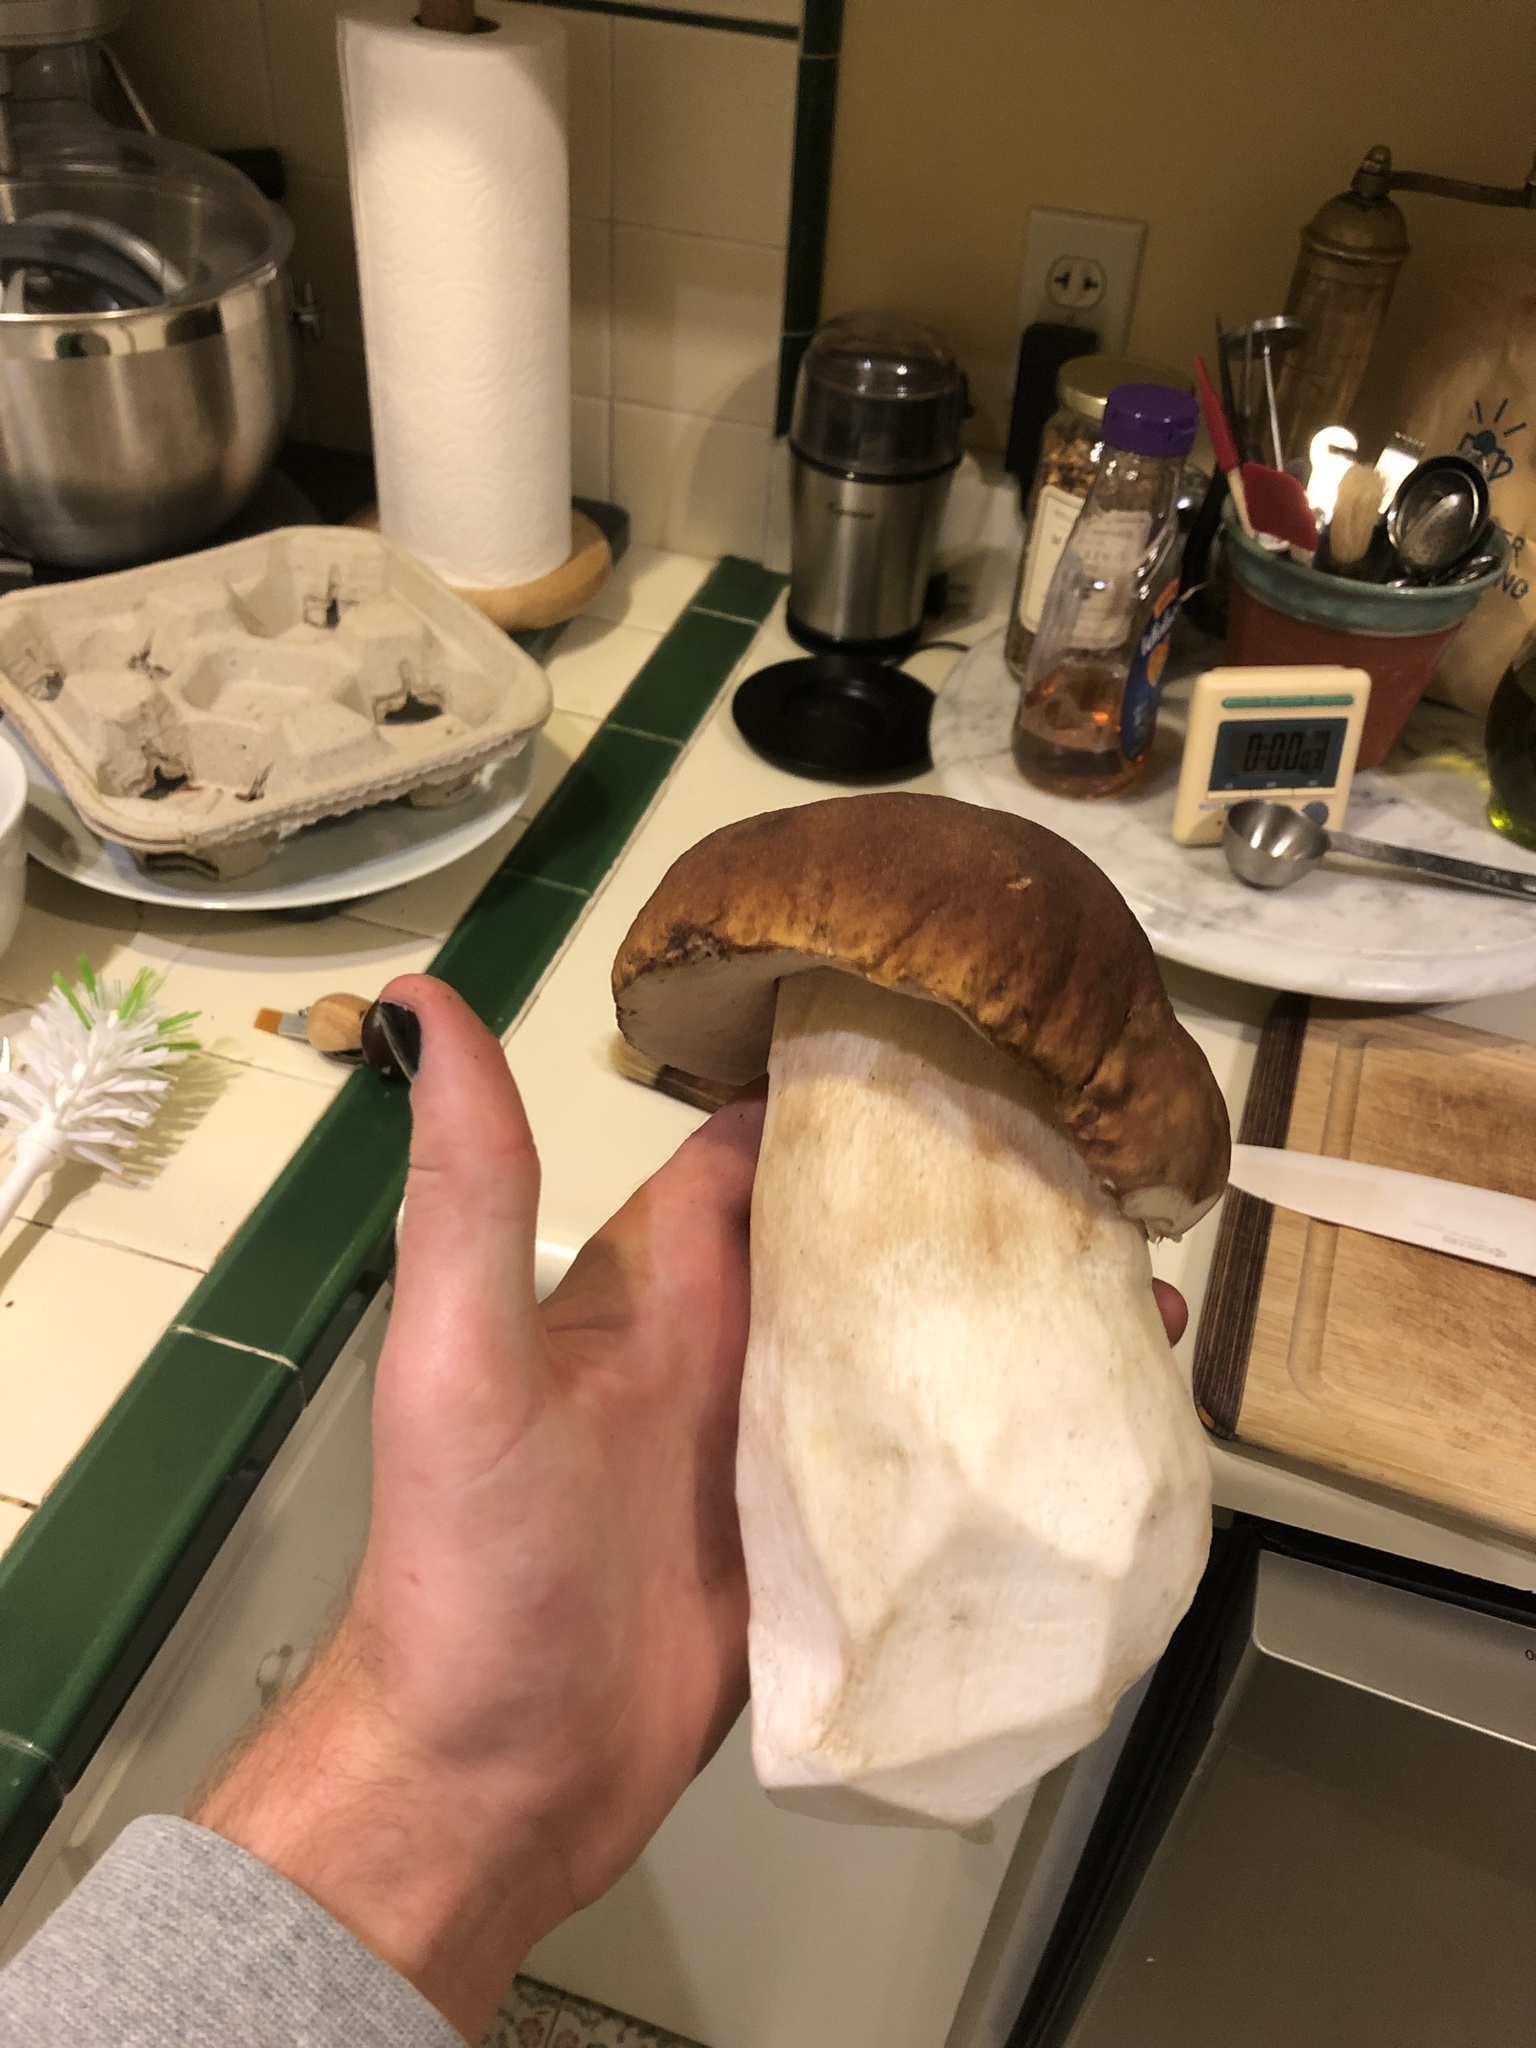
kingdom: Fungi
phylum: Basidiomycota
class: Agaricomycetes
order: Boletales
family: Boletaceae
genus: Boletus
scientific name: Boletus edulis
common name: Cep
